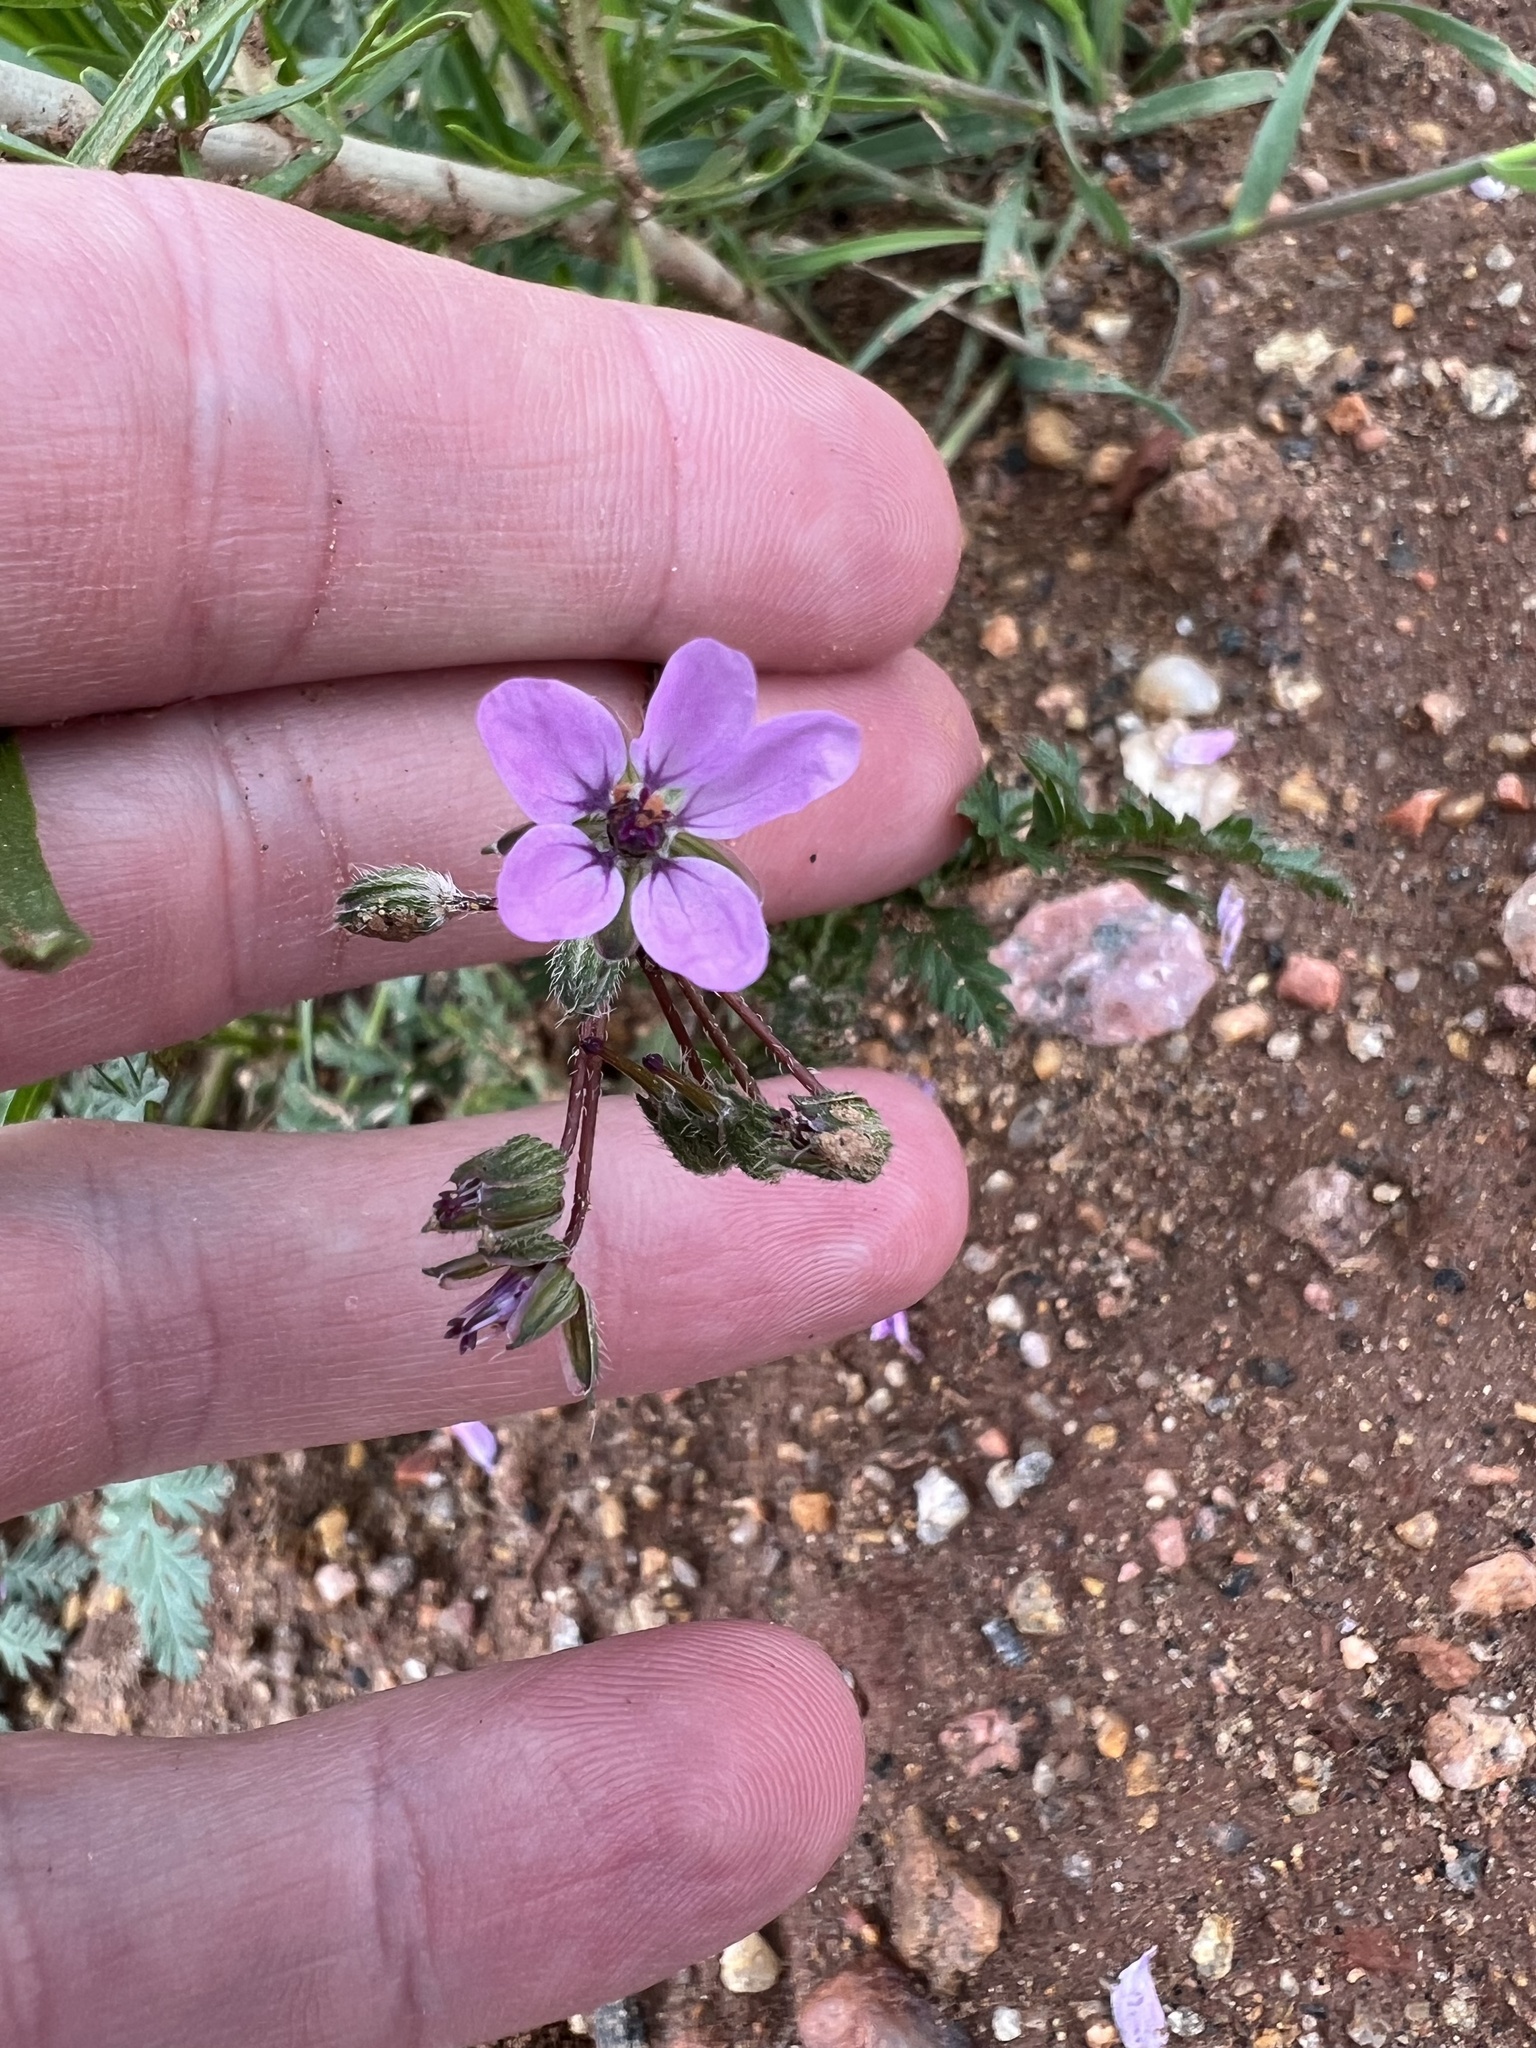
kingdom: Plantae
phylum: Tracheophyta
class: Magnoliopsida
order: Geraniales
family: Geraniaceae
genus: Erodium
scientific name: Erodium cicutarium
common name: Common stork's-bill
